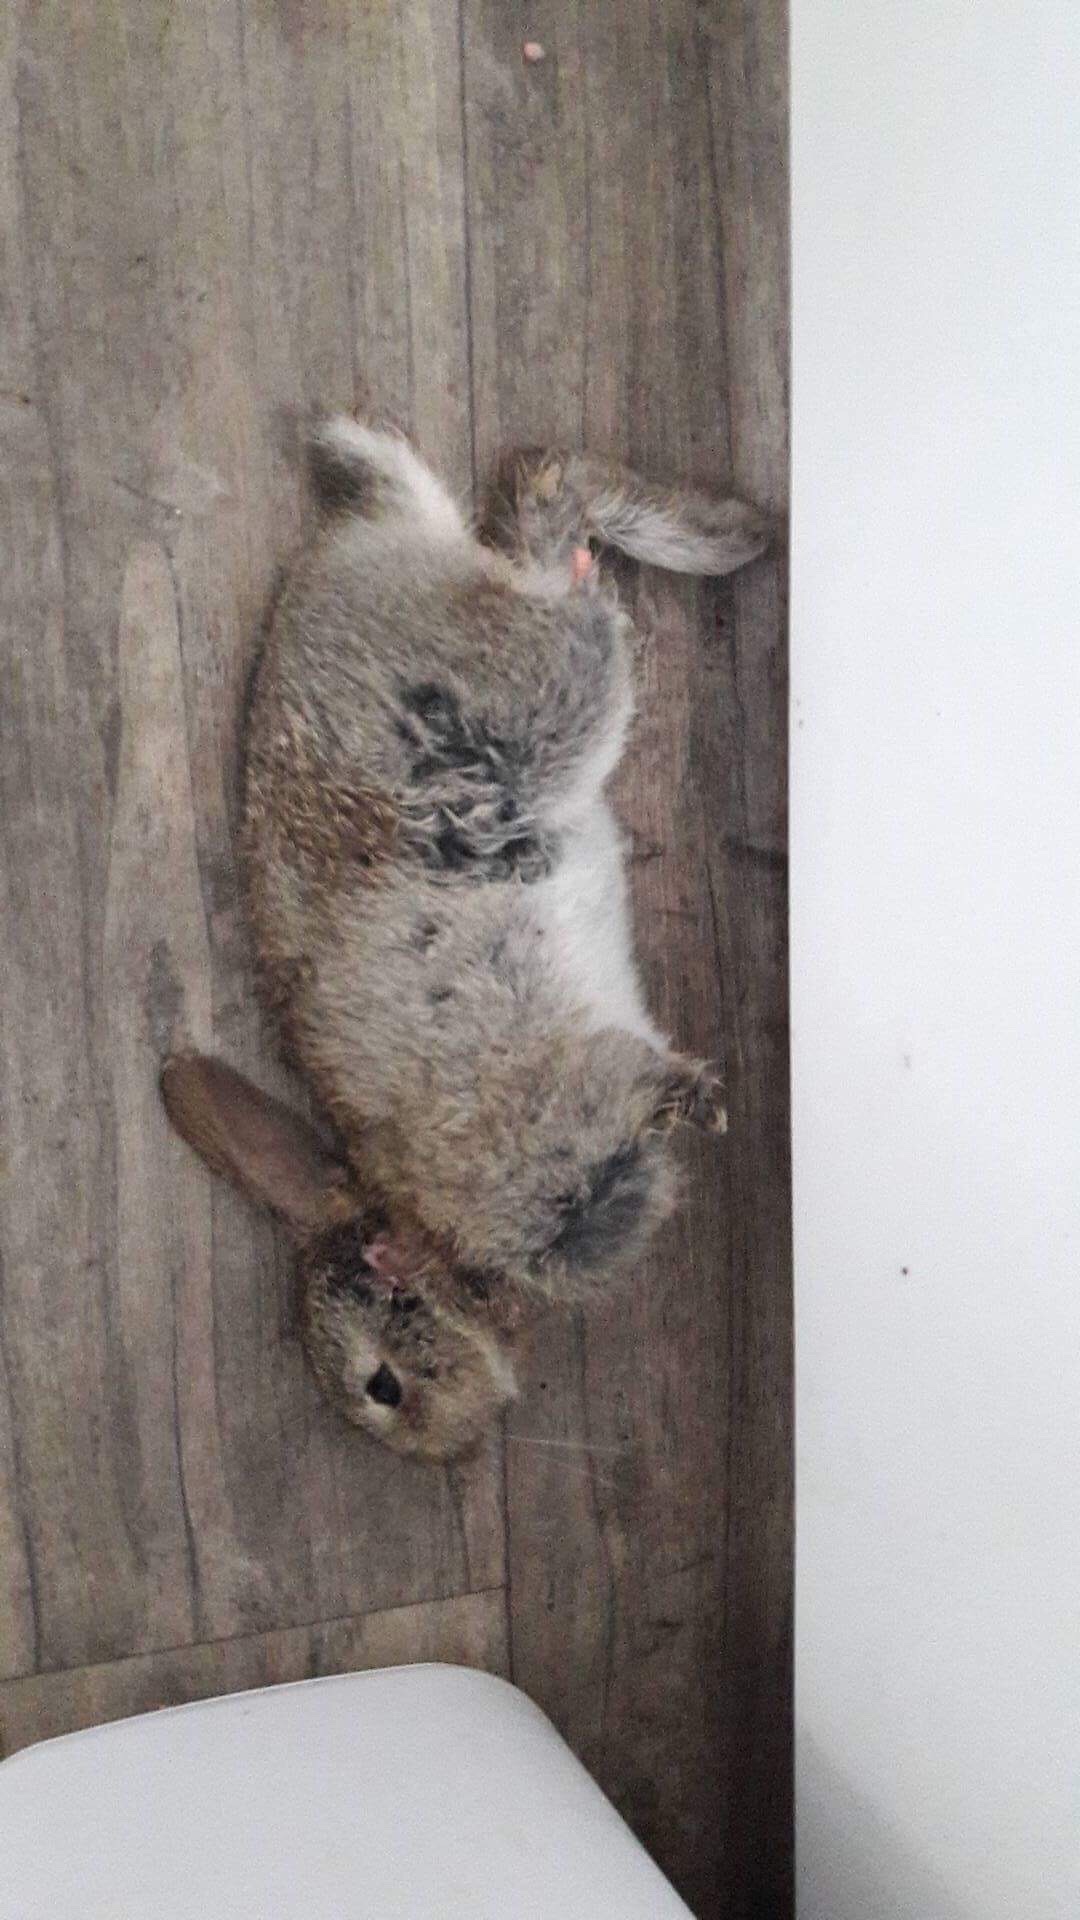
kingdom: Animalia
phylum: Chordata
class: Mammalia
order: Lagomorpha
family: Leporidae
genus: Oryctolagus
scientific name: Oryctolagus cuniculus
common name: European rabbit
